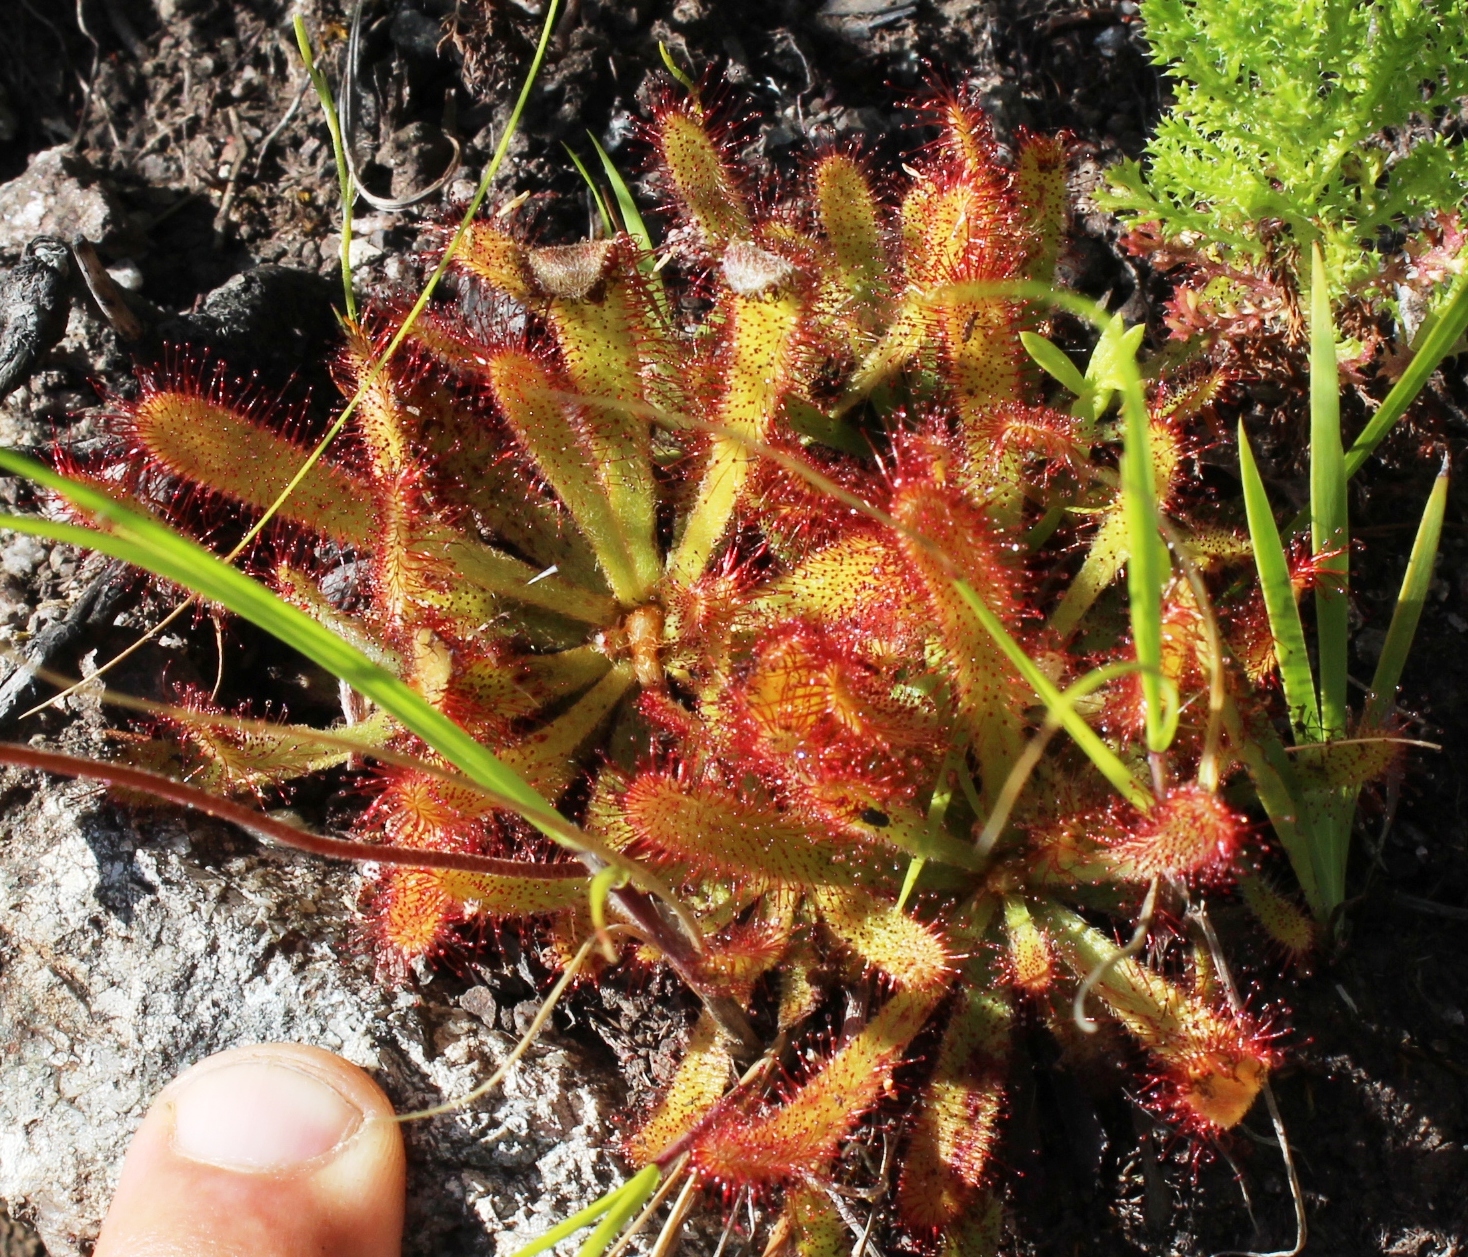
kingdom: Plantae
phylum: Tracheophyta
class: Magnoliopsida
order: Caryophyllales
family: Droseraceae
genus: Drosera
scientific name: Drosera ericgreenii
